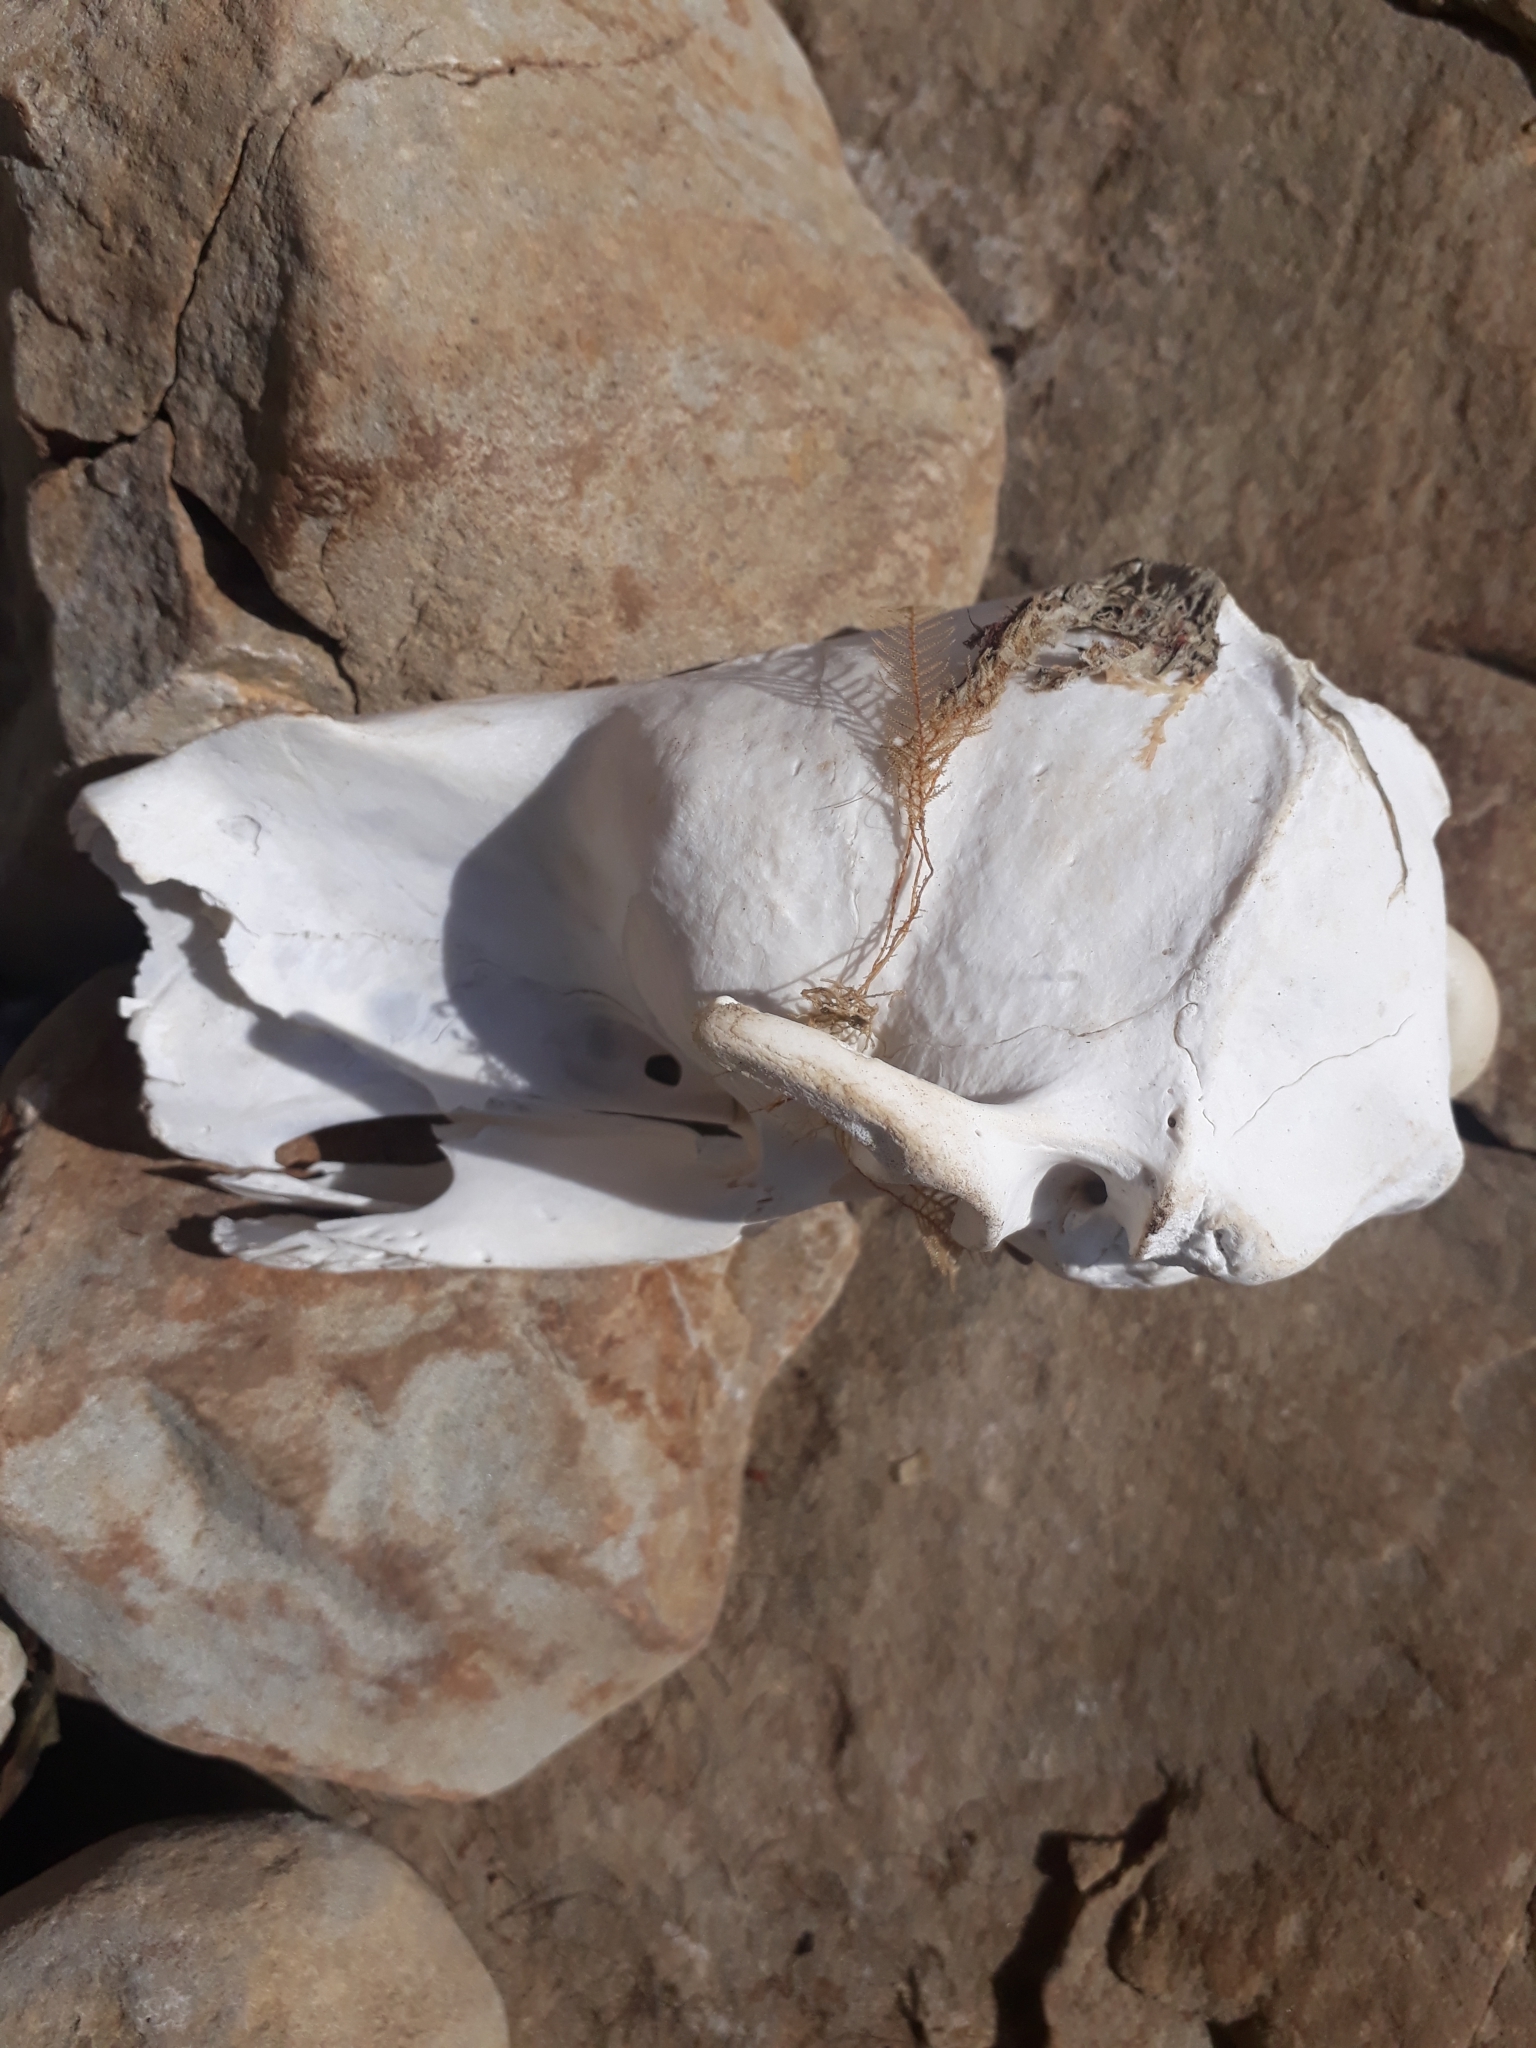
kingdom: Animalia
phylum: Chordata
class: Mammalia
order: Carnivora
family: Otariidae
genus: Arctocephalus
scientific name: Arctocephalus forsteri
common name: New zealand fur seal
